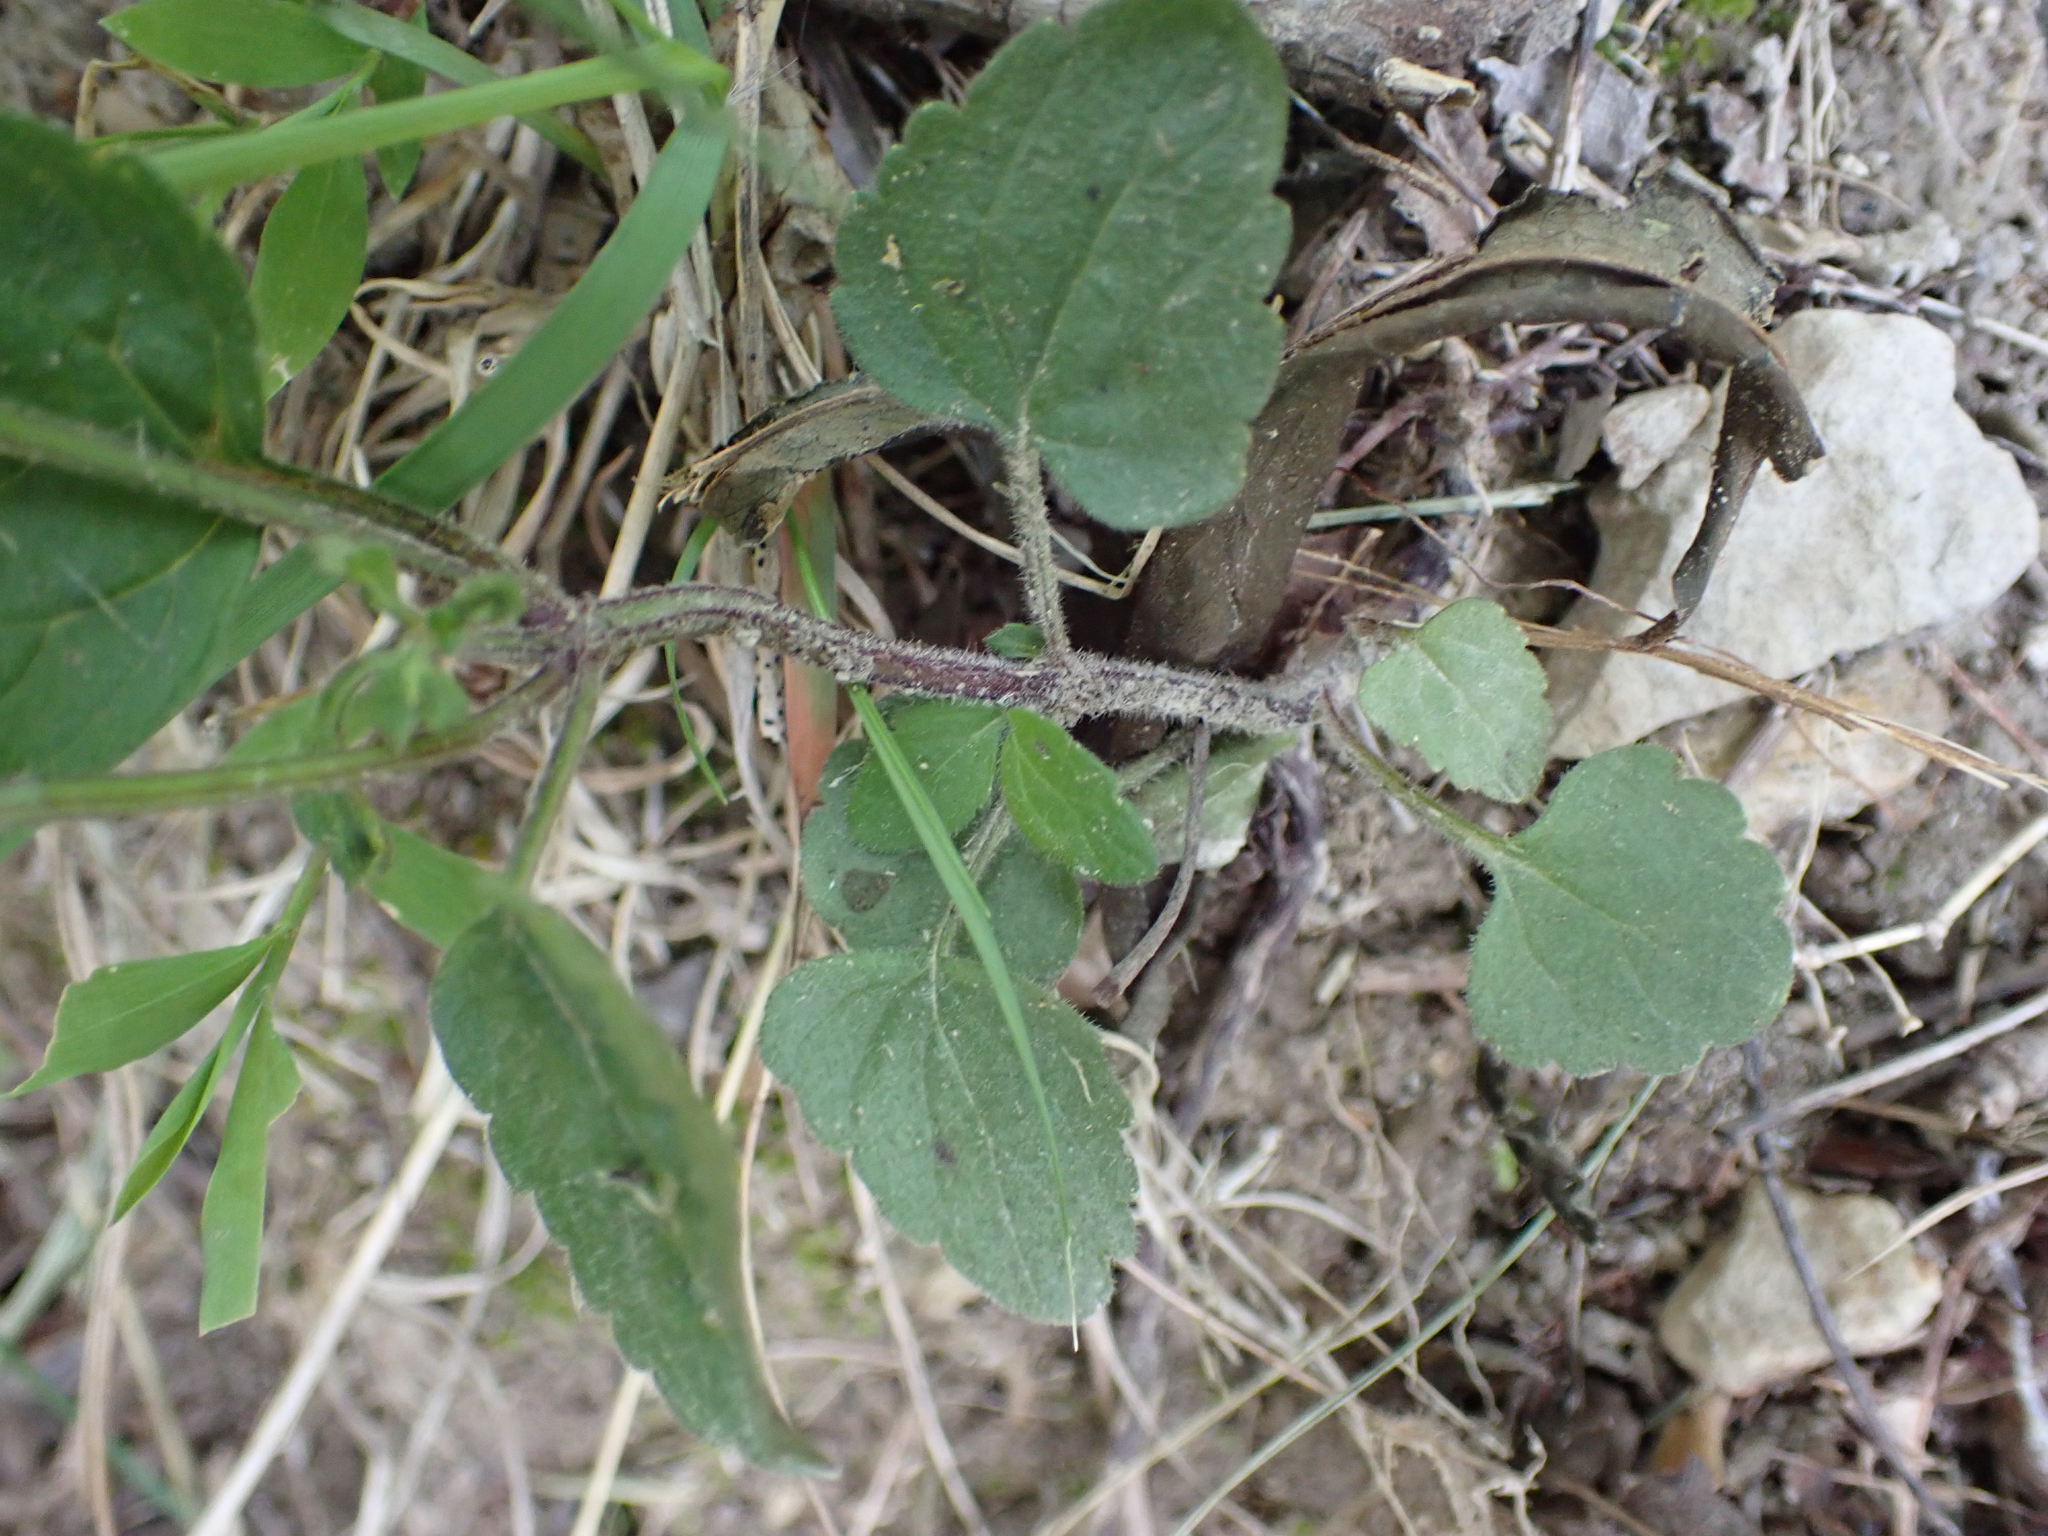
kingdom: Plantae
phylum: Tracheophyta
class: Magnoliopsida
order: Lamiales
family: Lamiaceae
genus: Scutellaria
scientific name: Scutellaria elliptica
